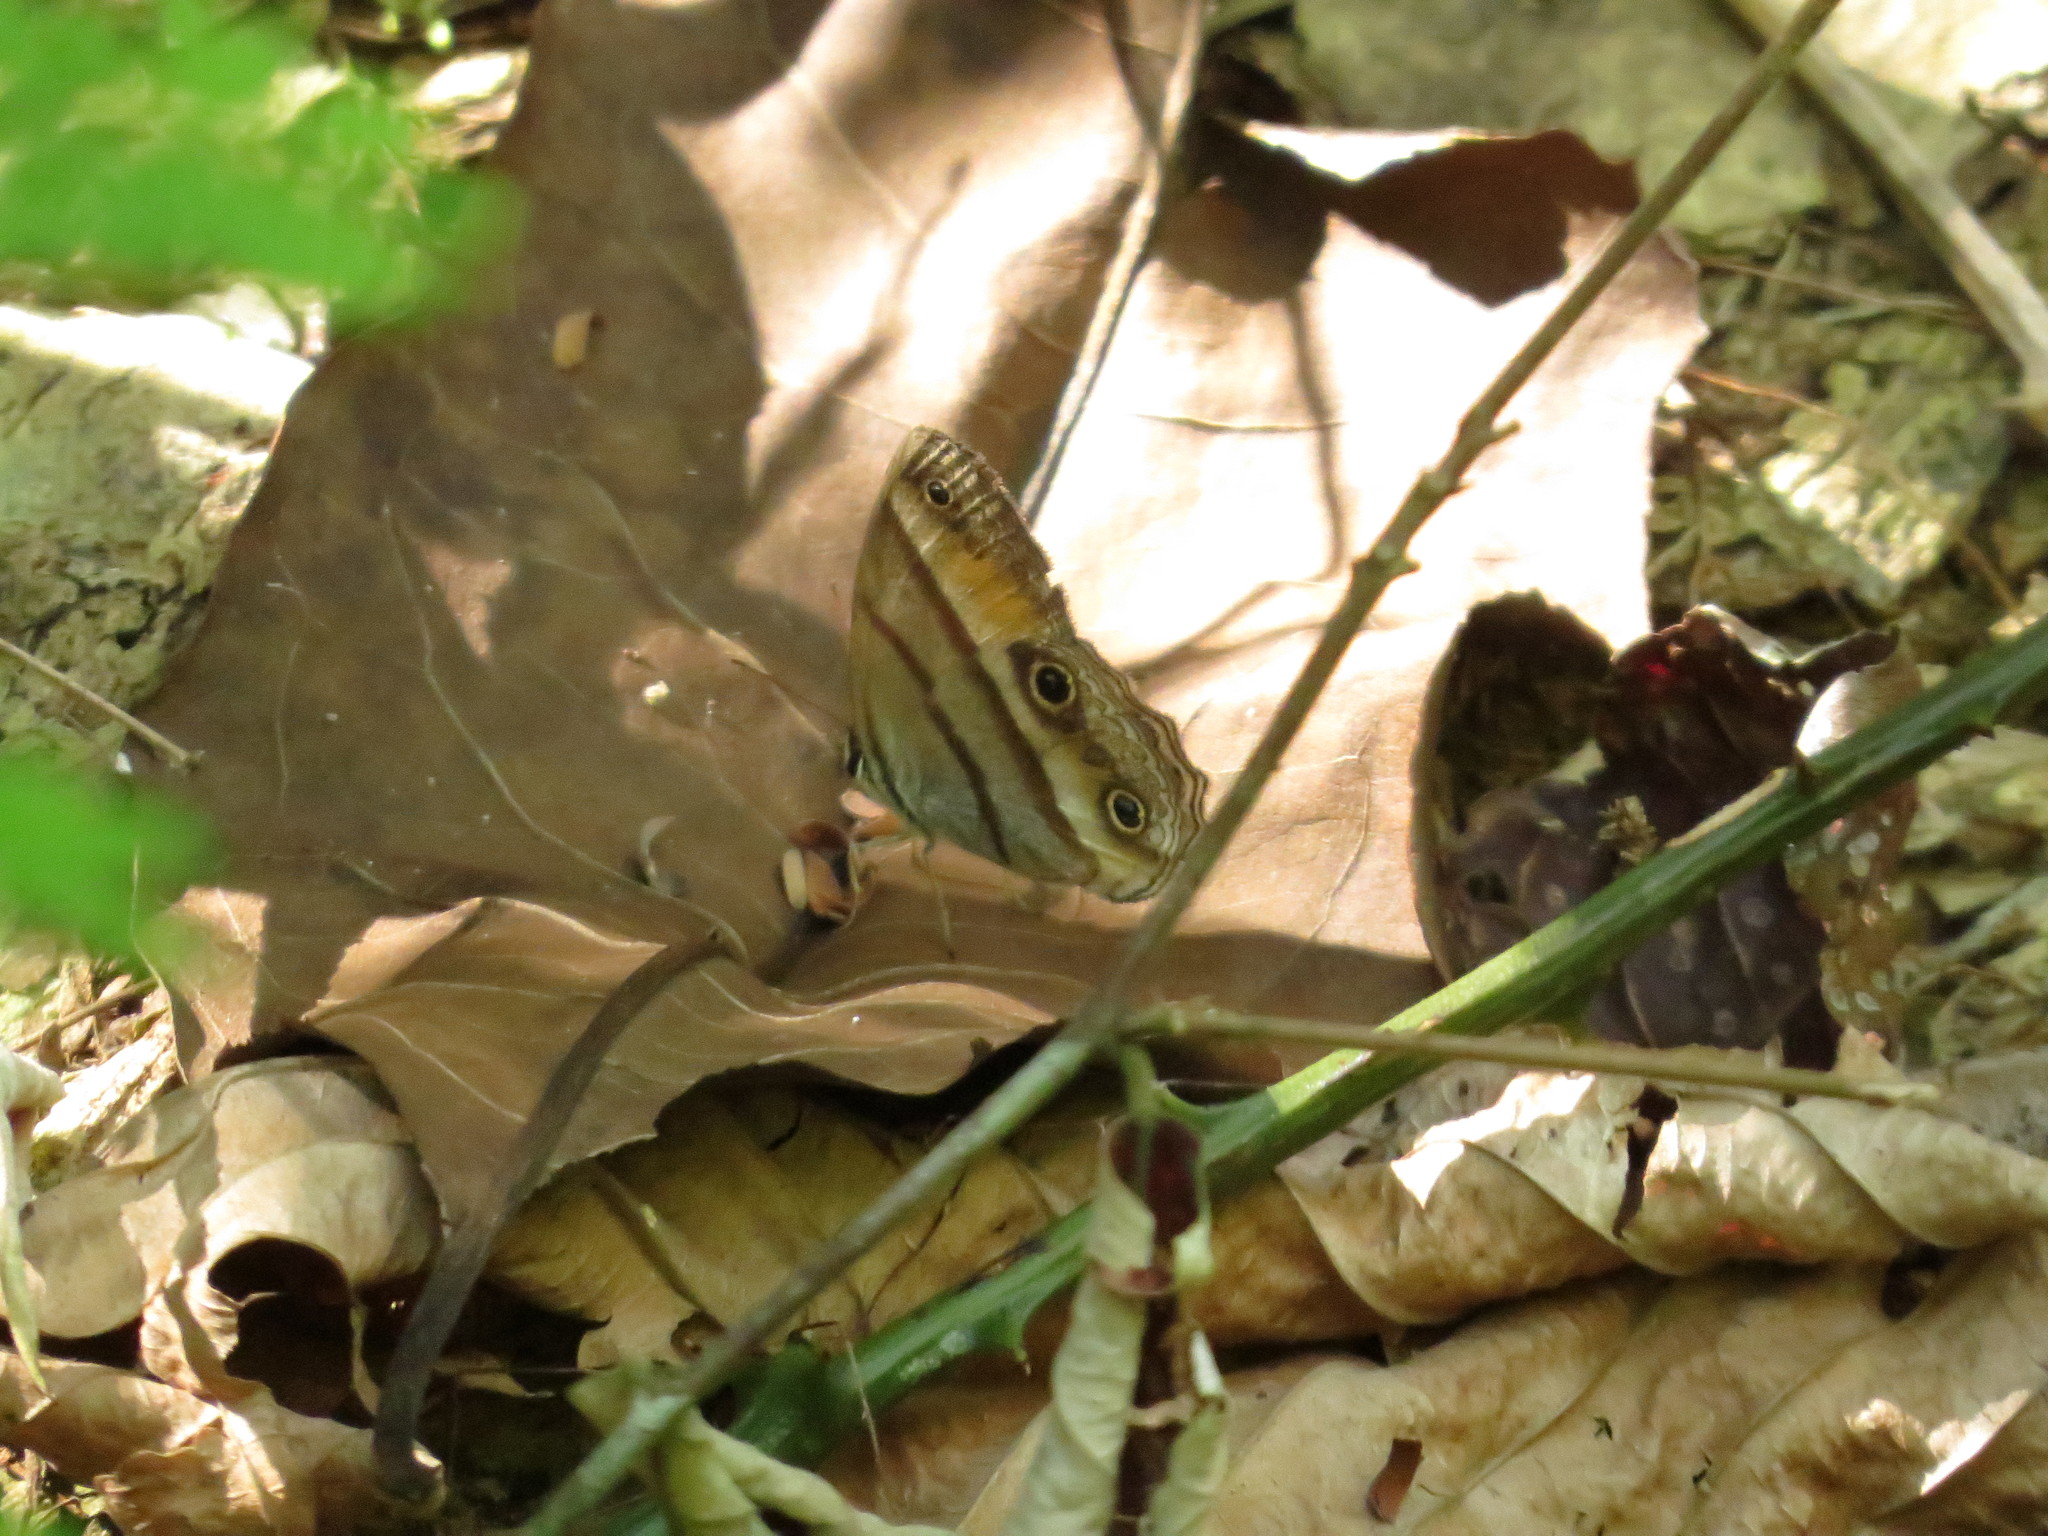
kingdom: Animalia
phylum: Arthropoda
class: Insecta
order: Lepidoptera
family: Nymphalidae
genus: Argyreuptychia
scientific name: Argyreuptychia penelope
